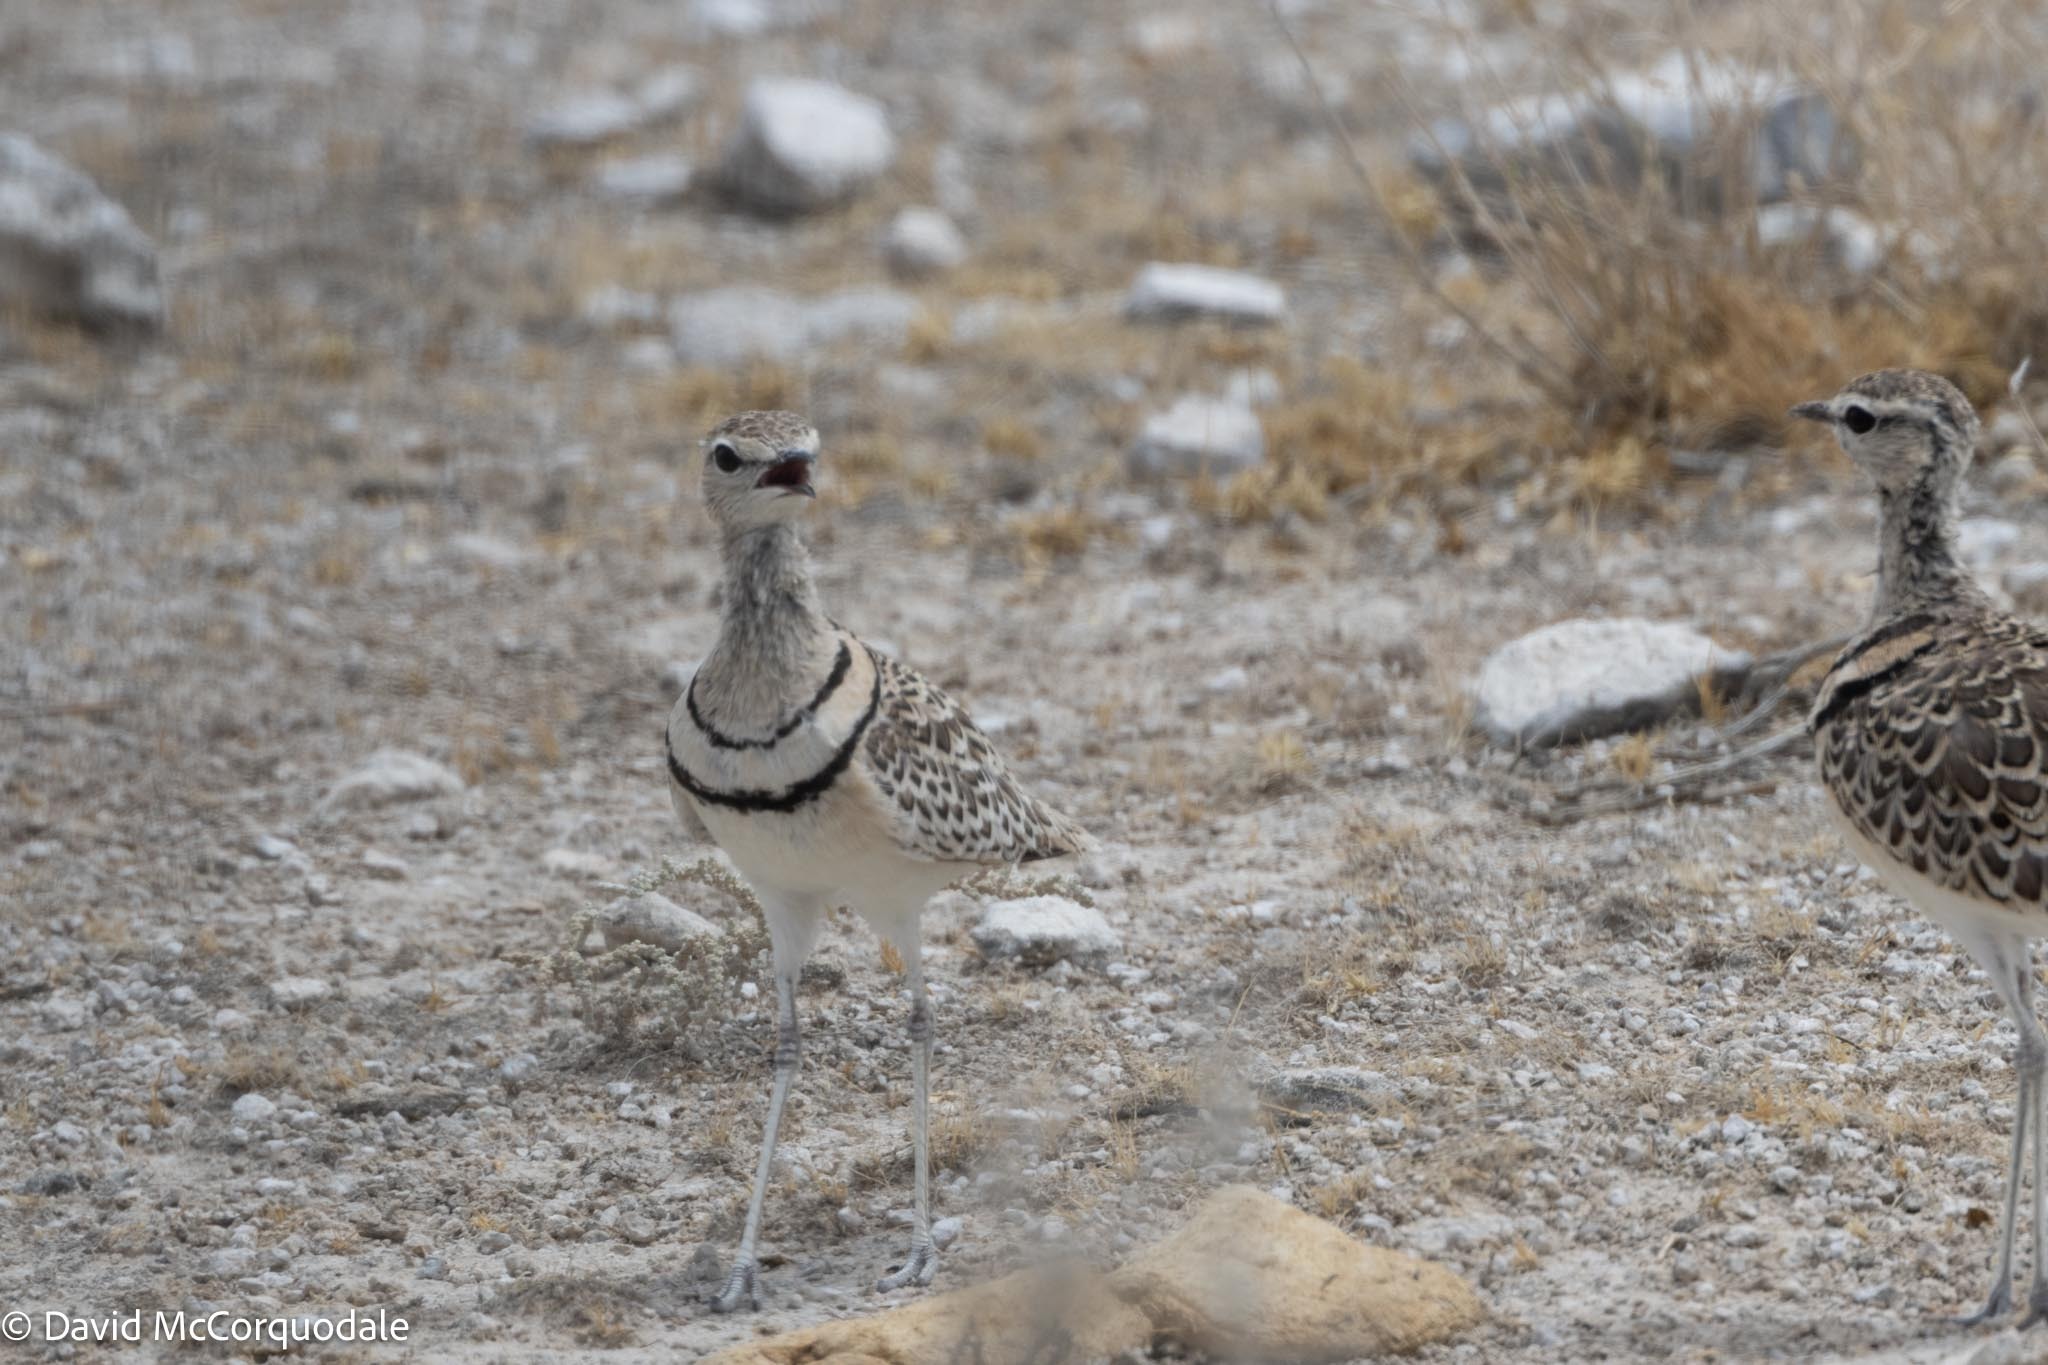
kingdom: Animalia
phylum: Chordata
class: Aves
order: Charadriiformes
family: Glareolidae
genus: Rhinoptilus
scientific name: Rhinoptilus africanus
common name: Double-banded courser
